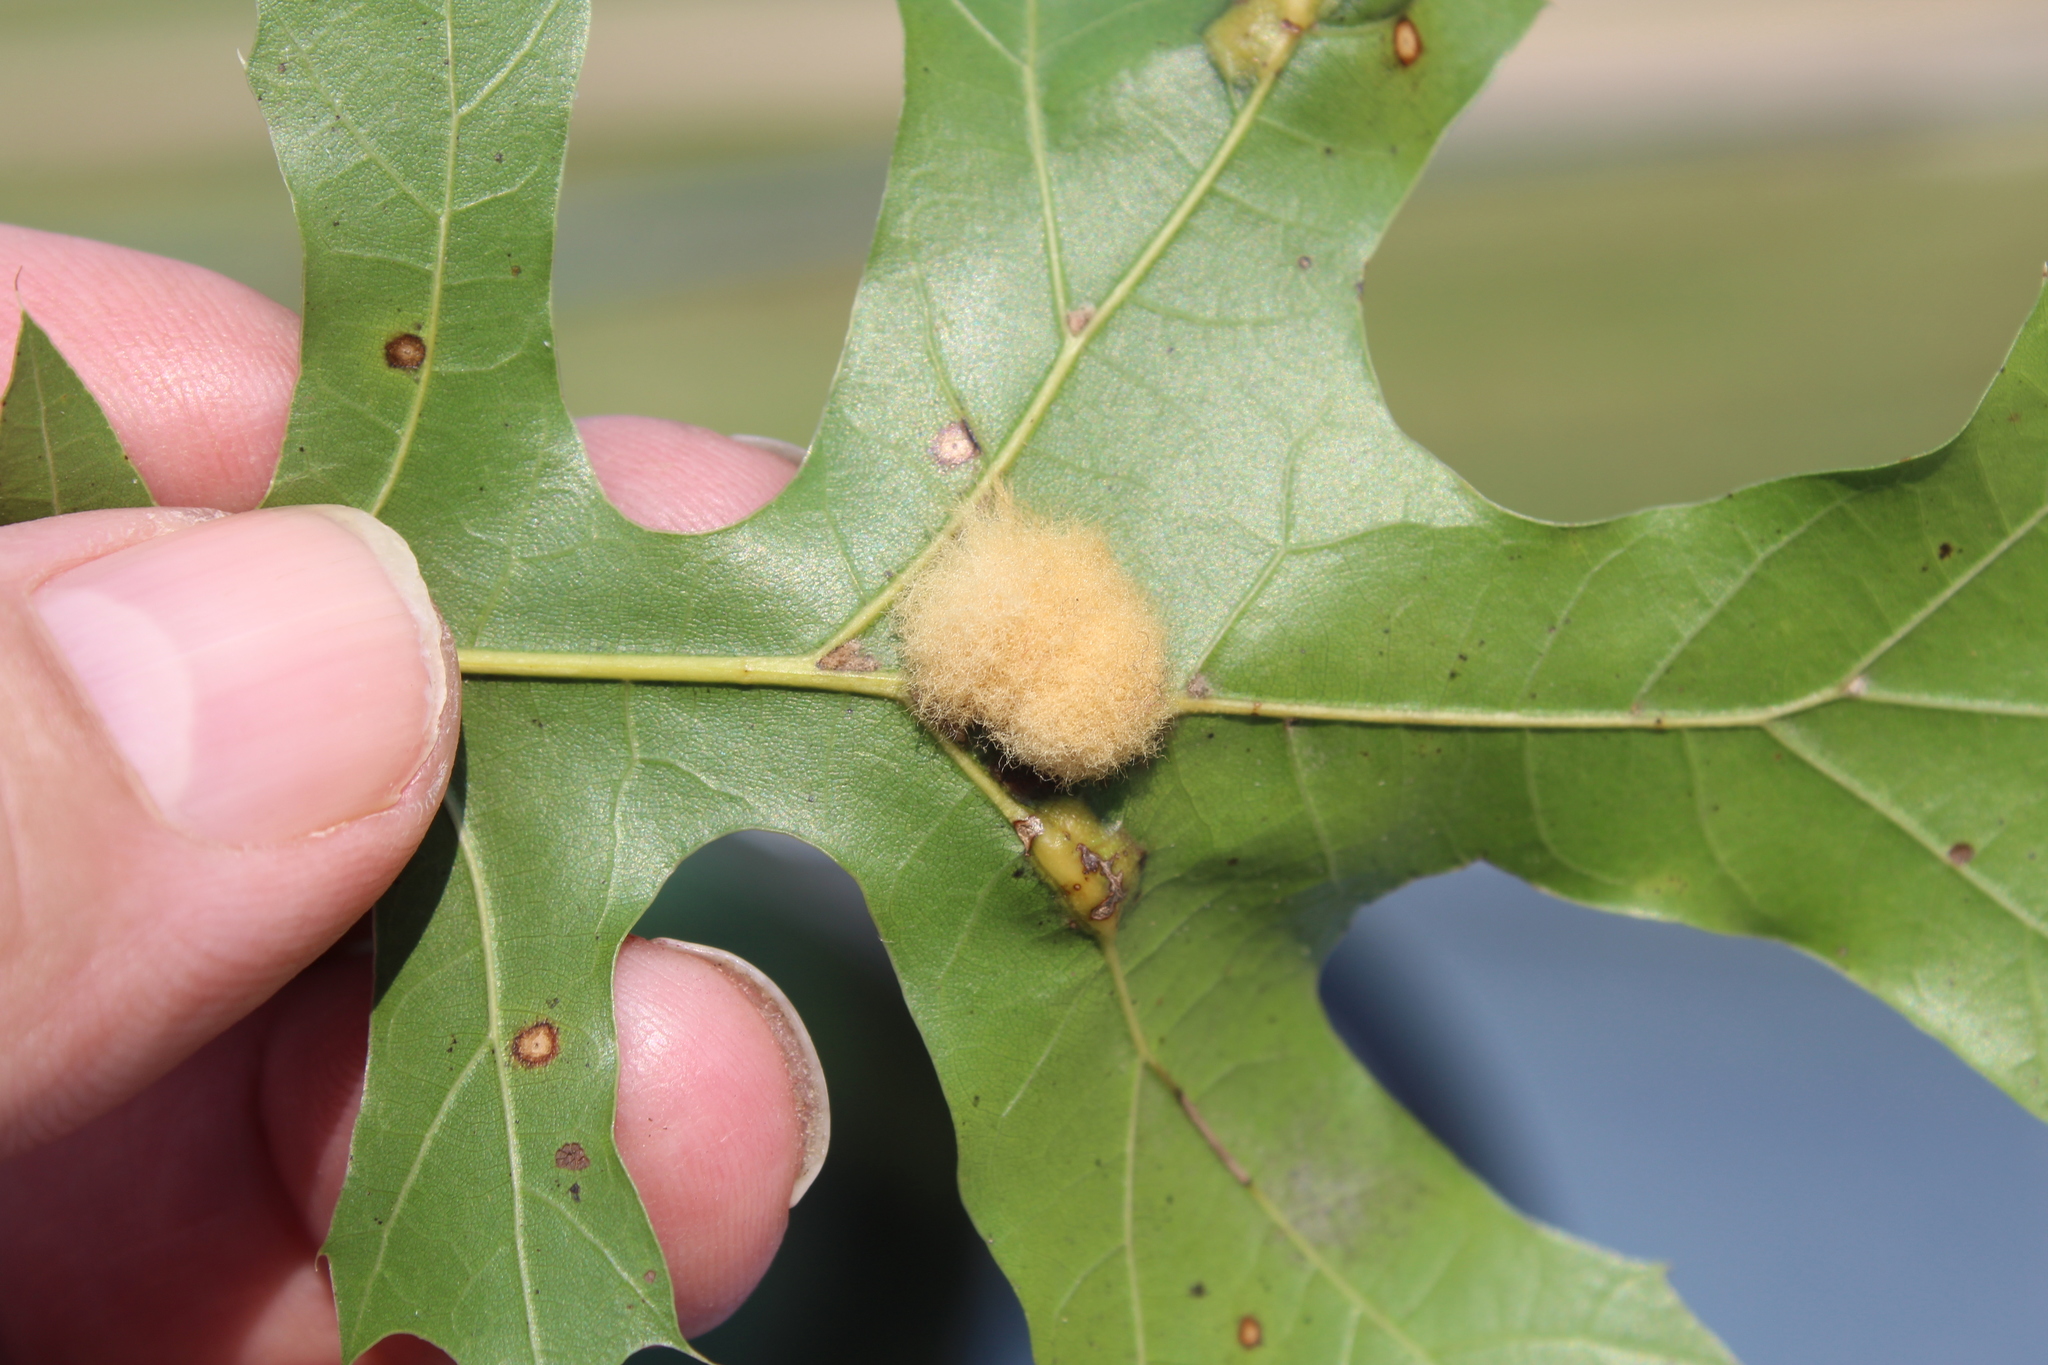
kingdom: Animalia
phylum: Arthropoda
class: Insecta
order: Hymenoptera
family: Cynipidae
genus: Callirhytis
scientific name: Callirhytis
